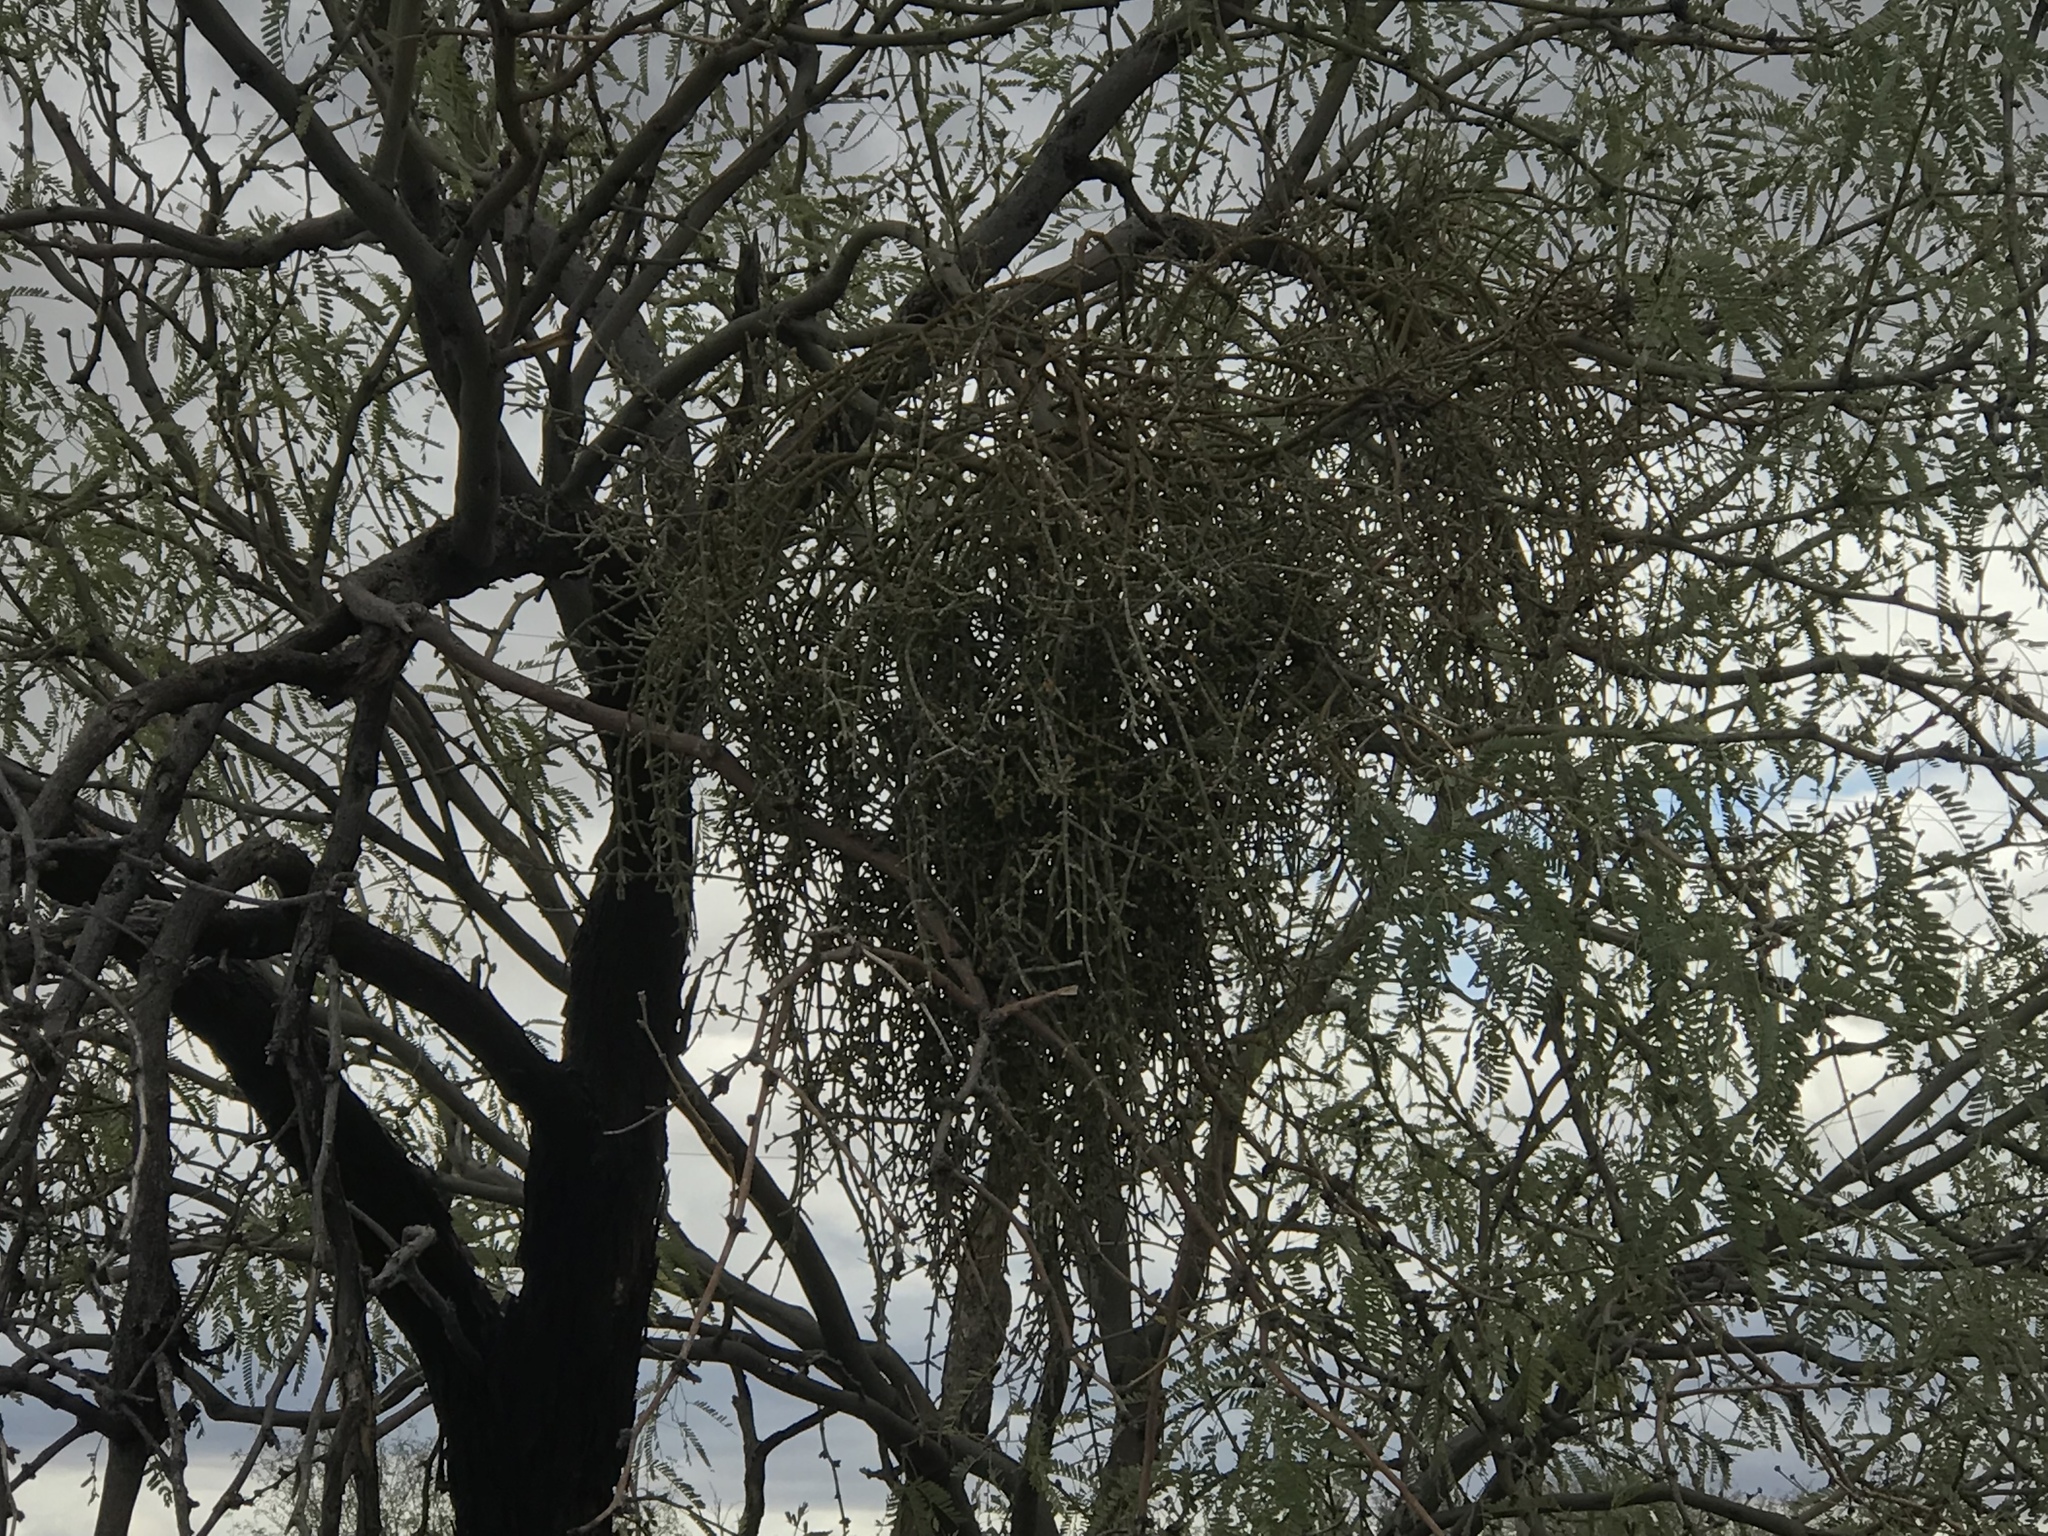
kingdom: Plantae
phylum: Tracheophyta
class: Magnoliopsida
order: Santalales
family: Viscaceae
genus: Phoradendron
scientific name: Phoradendron californicum
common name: Acacia mistletoe
